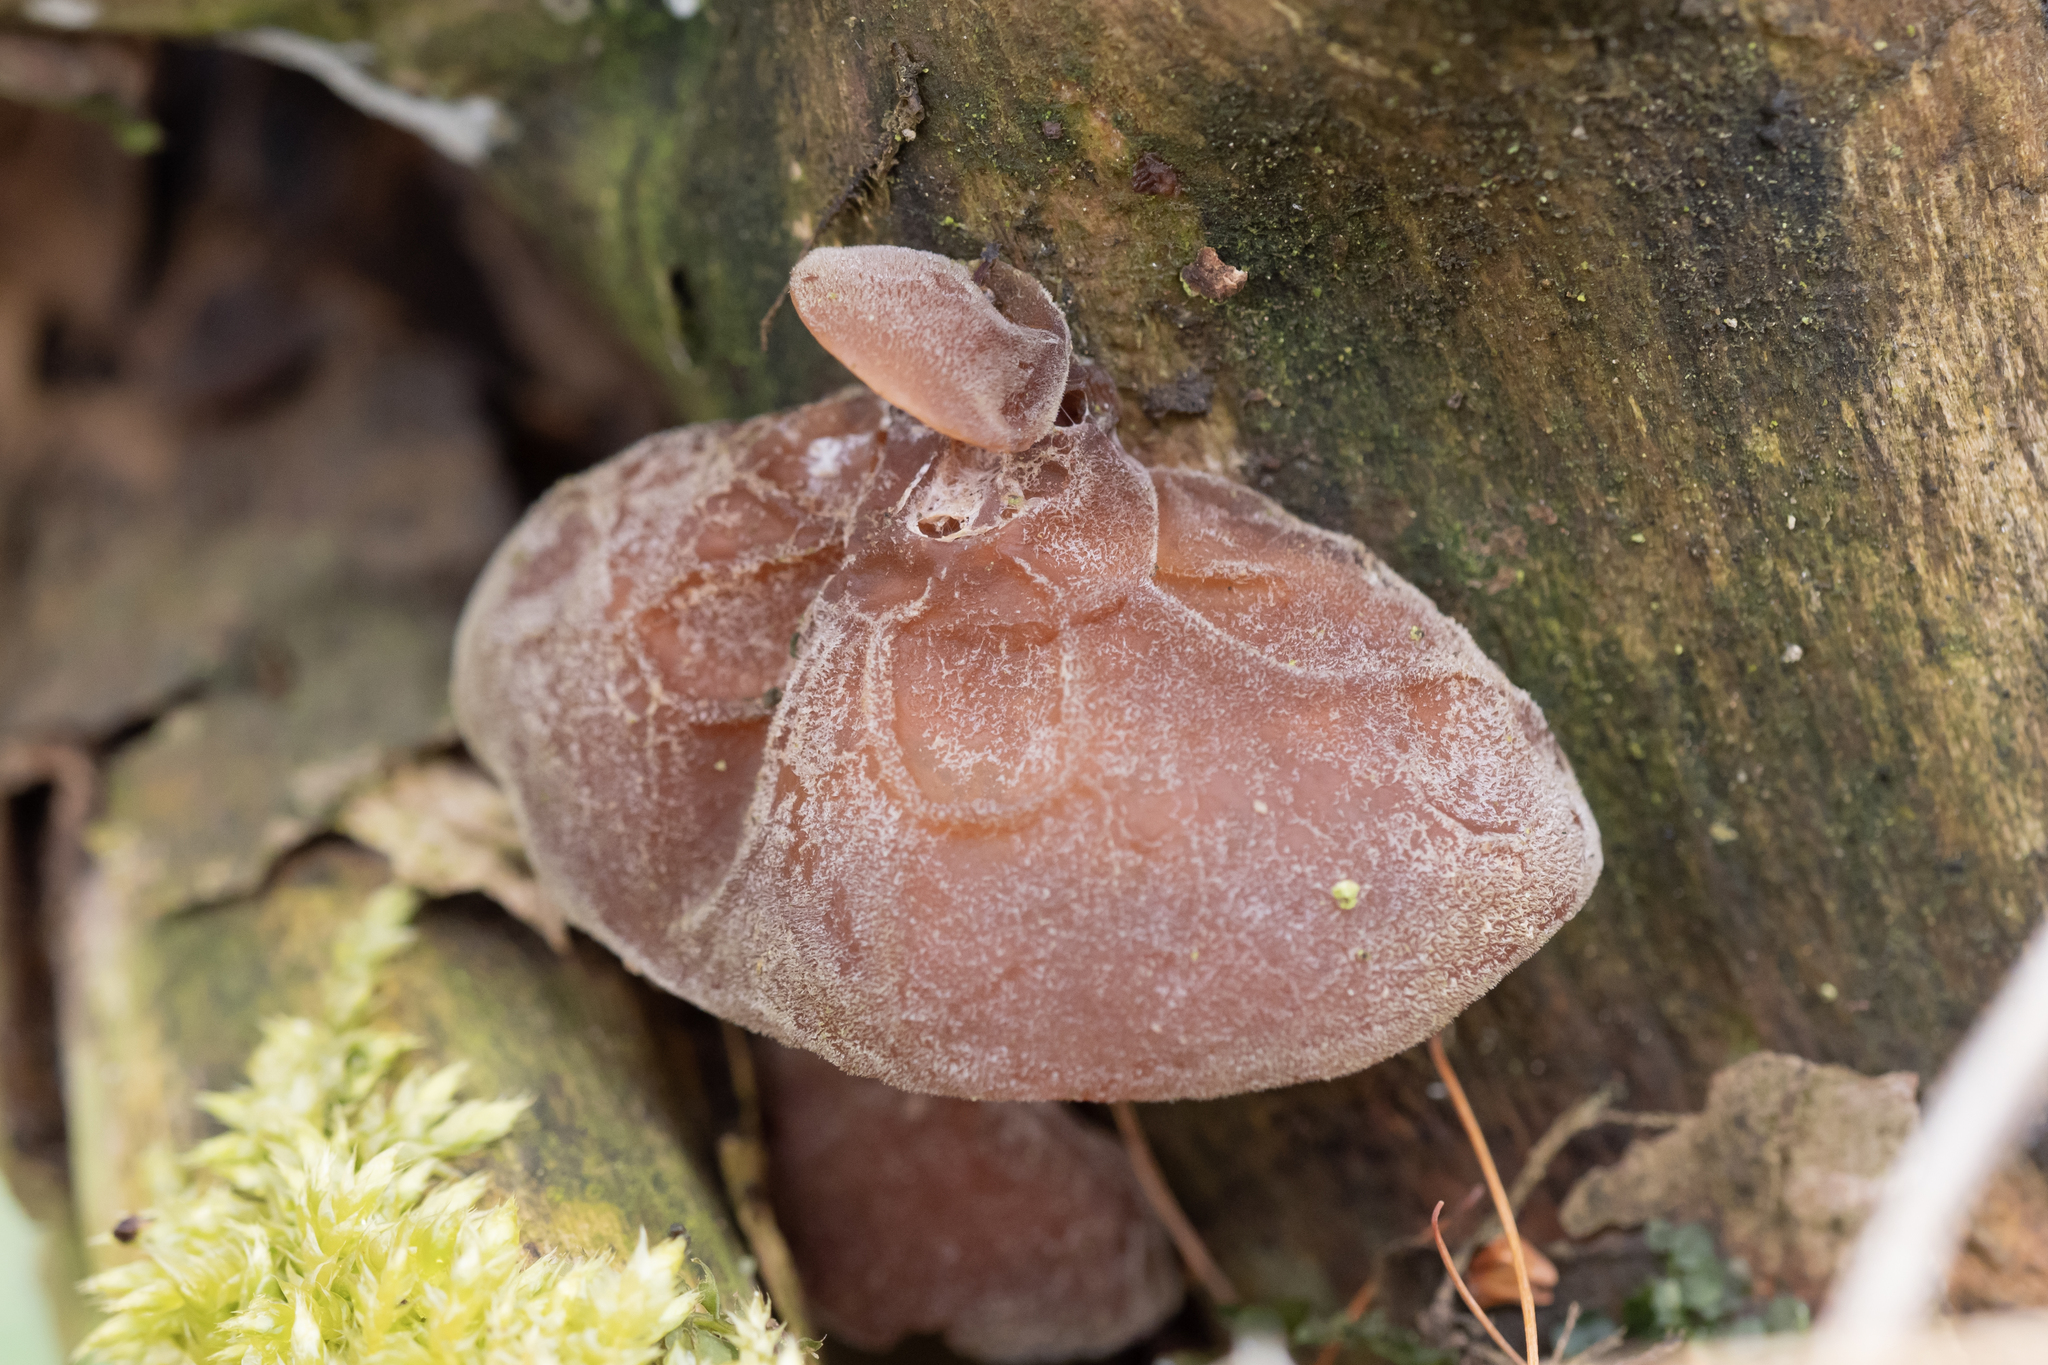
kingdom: Fungi
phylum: Basidiomycota
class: Agaricomycetes
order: Auriculariales
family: Auriculariaceae
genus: Auricularia
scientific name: Auricularia auricula-judae
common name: Jelly ear
